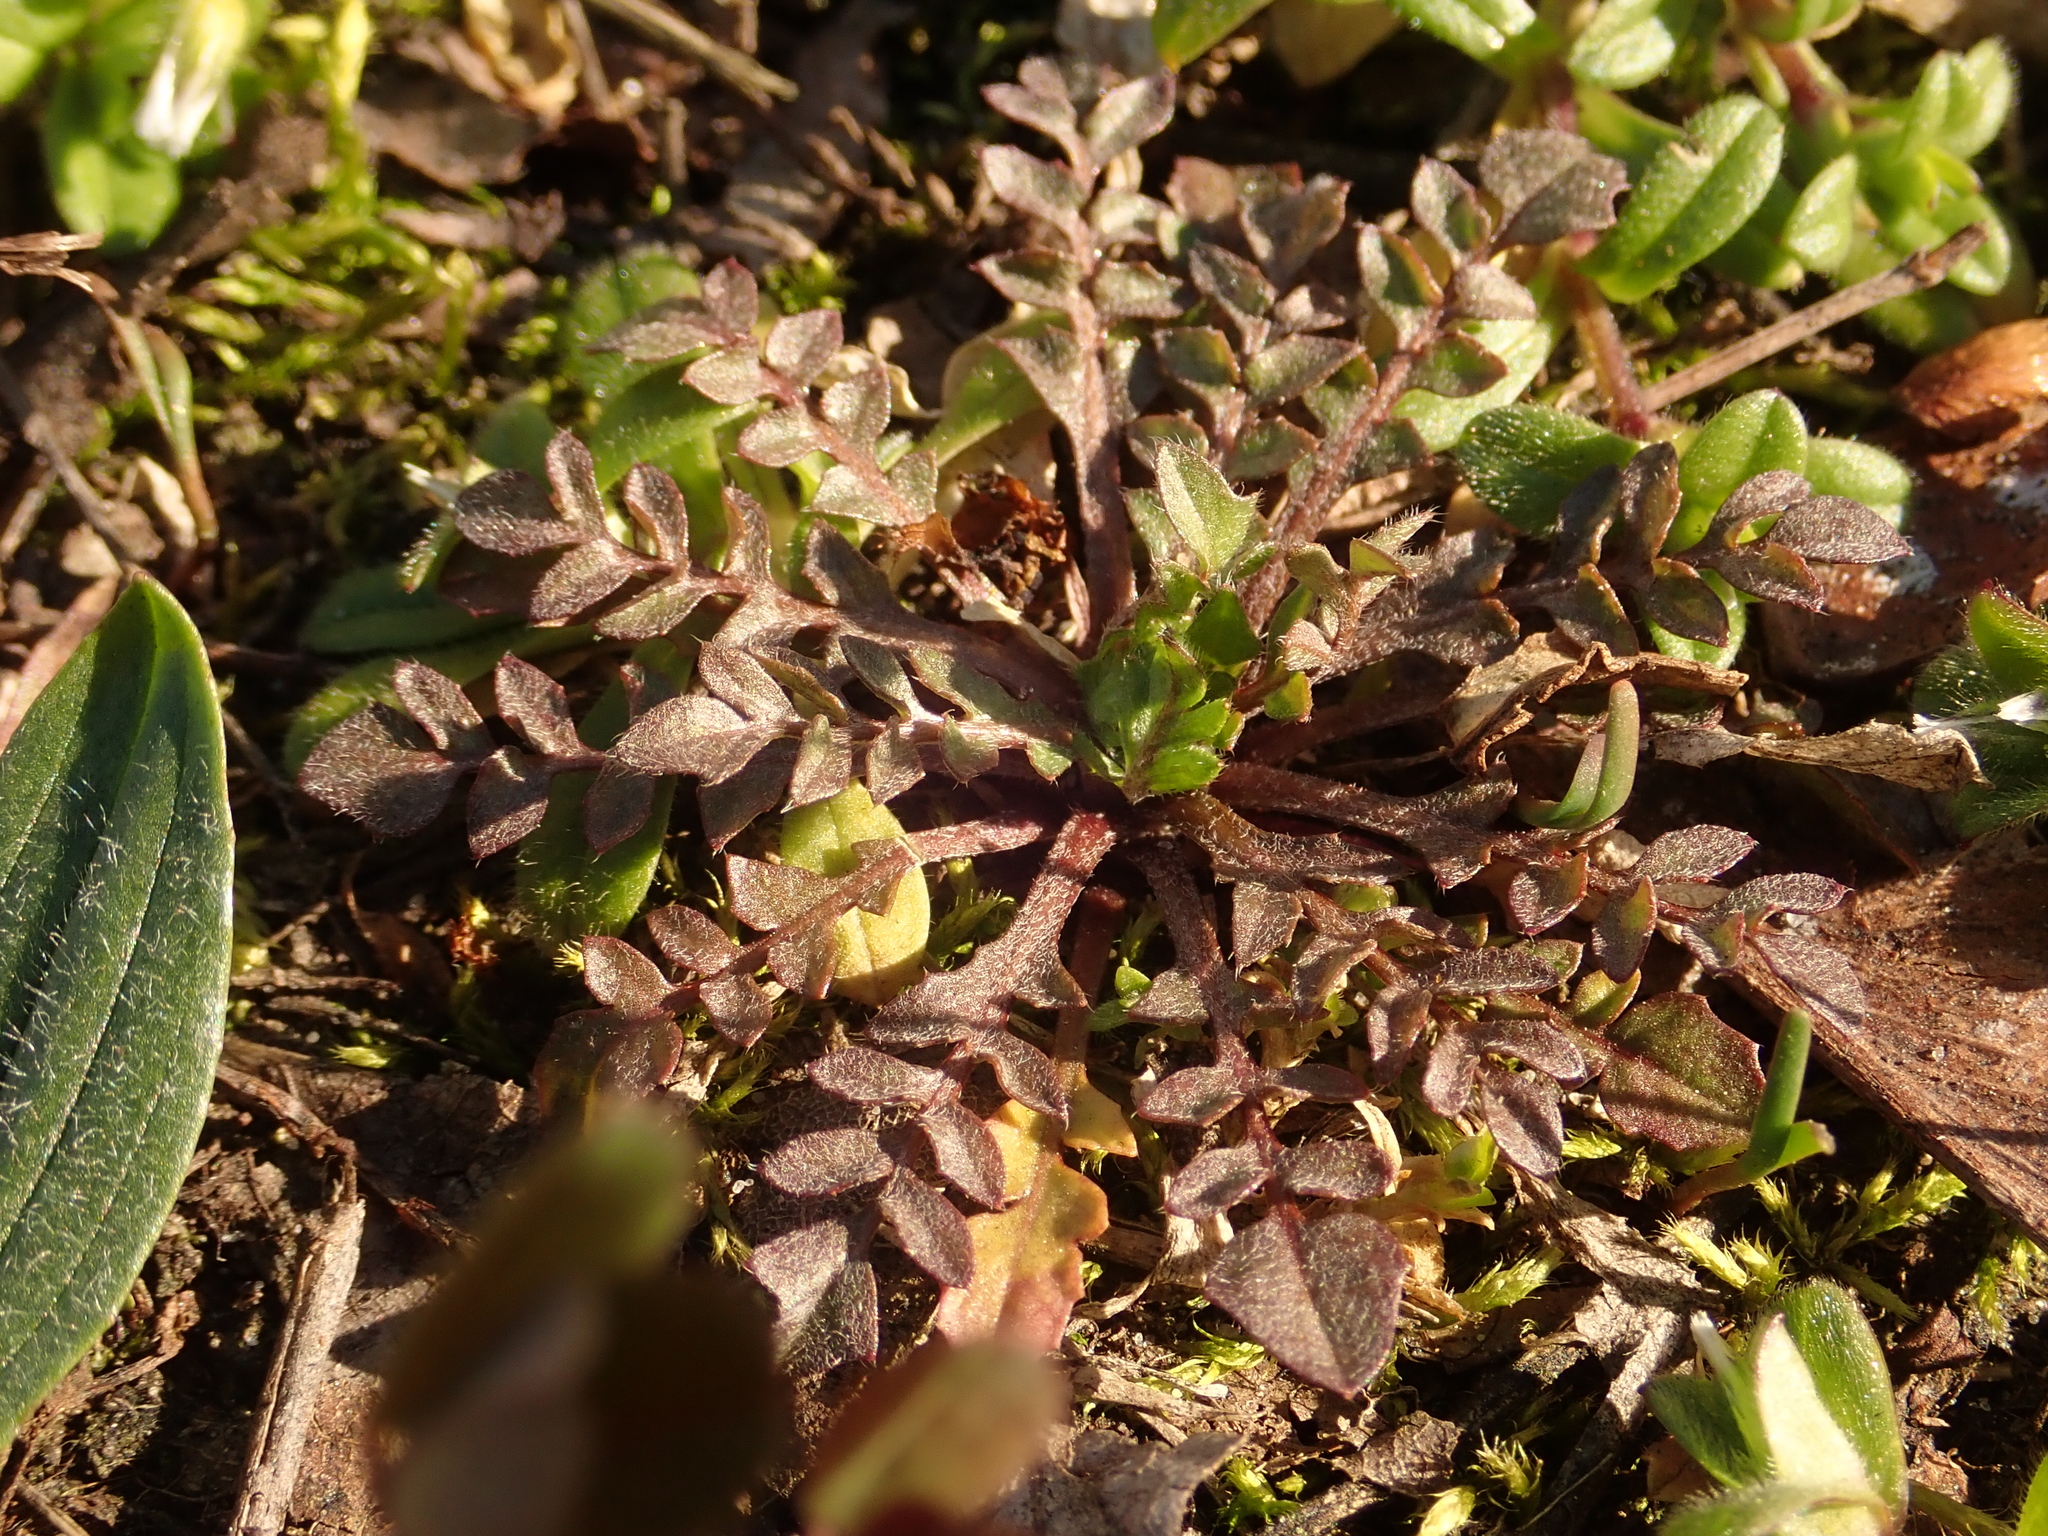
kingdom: Plantae
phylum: Tracheophyta
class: Magnoliopsida
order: Brassicales
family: Brassicaceae
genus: Capsella
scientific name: Capsella bursa-pastoris
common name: Shepherd's purse
